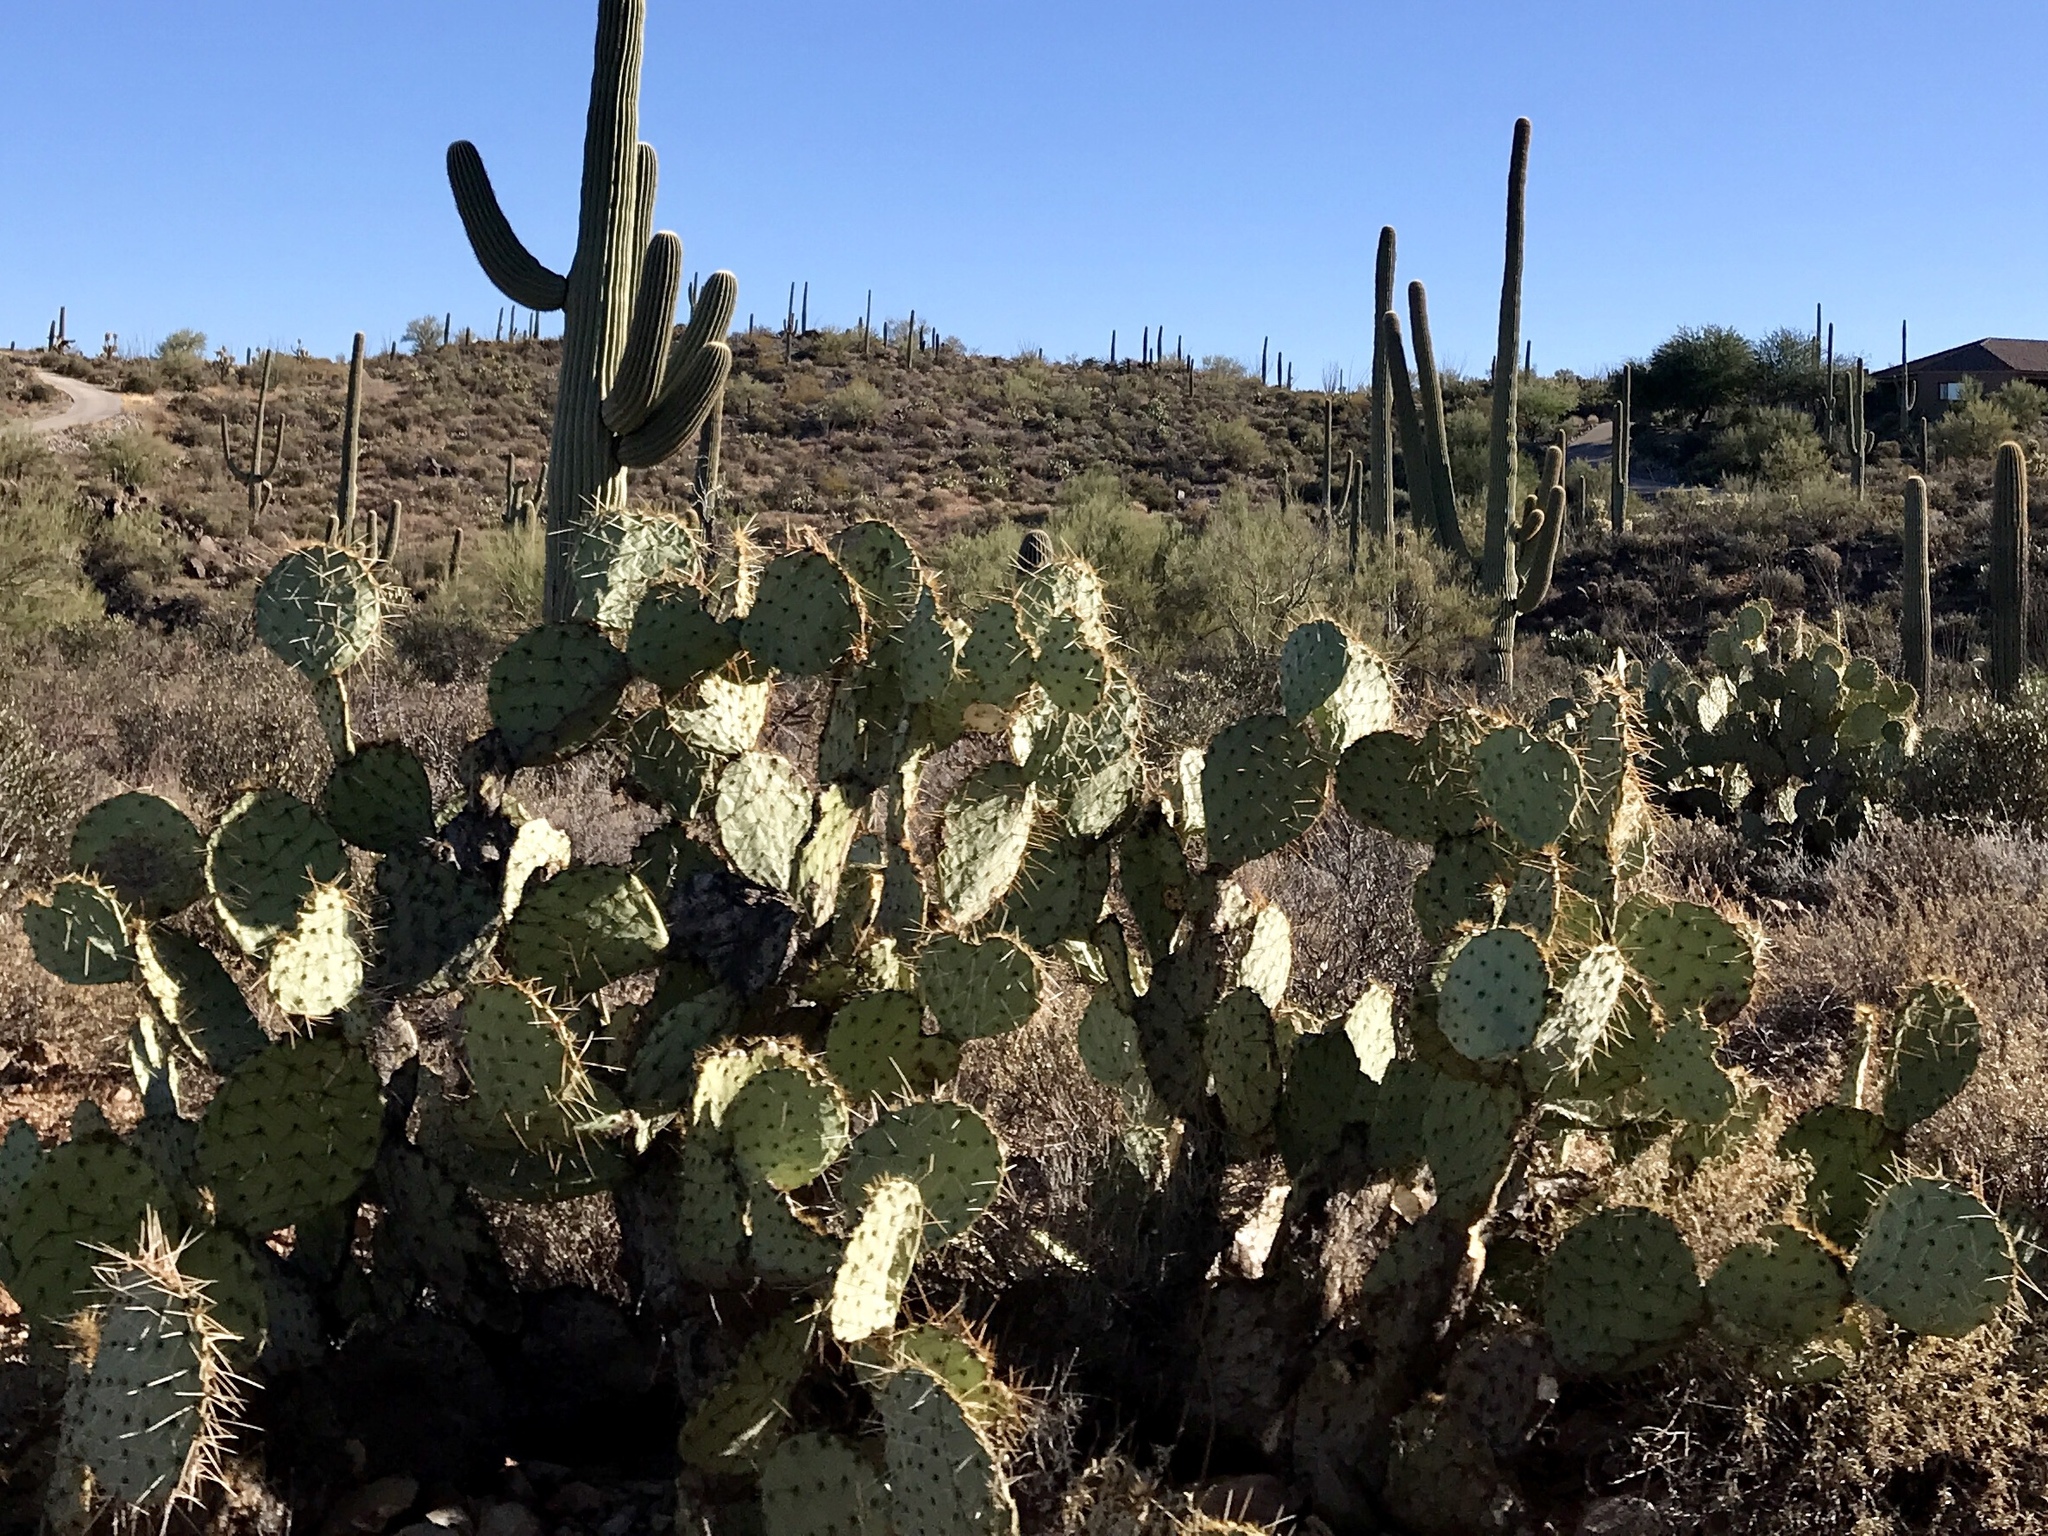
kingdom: Plantae
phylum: Tracheophyta
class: Magnoliopsida
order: Caryophyllales
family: Cactaceae
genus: Opuntia
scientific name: Opuntia engelmannii
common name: Cactus-apple
